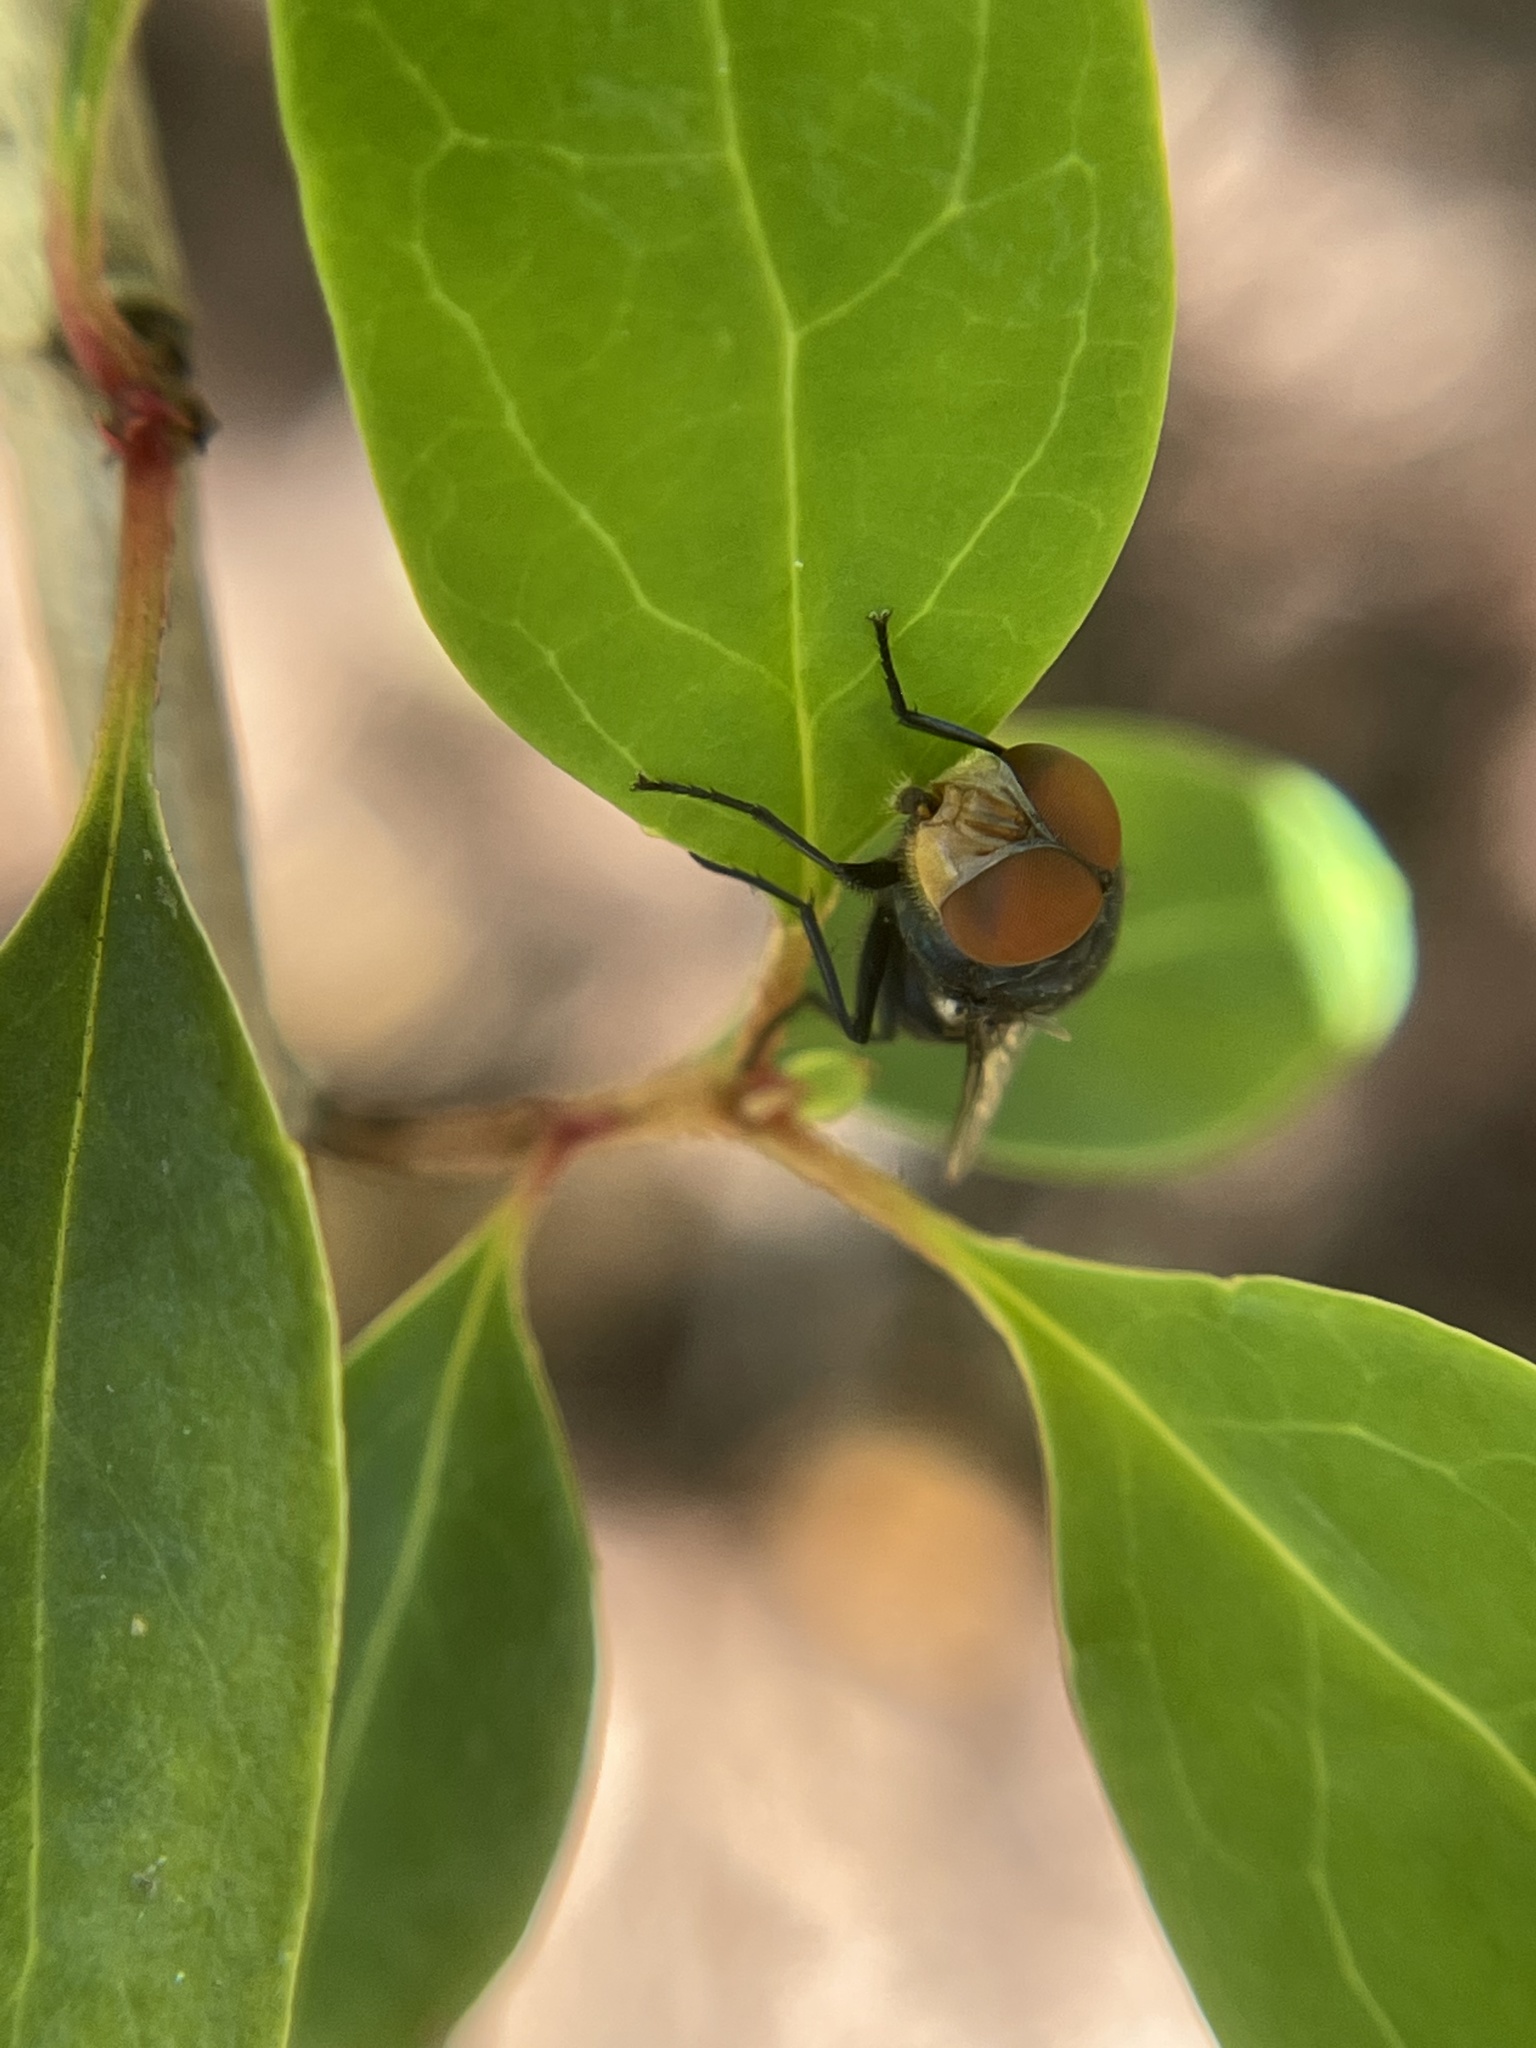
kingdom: Animalia
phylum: Arthropoda
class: Insecta
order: Diptera
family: Calliphoridae
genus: Chrysomya
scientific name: Chrysomya megacephala
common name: Blow fly
